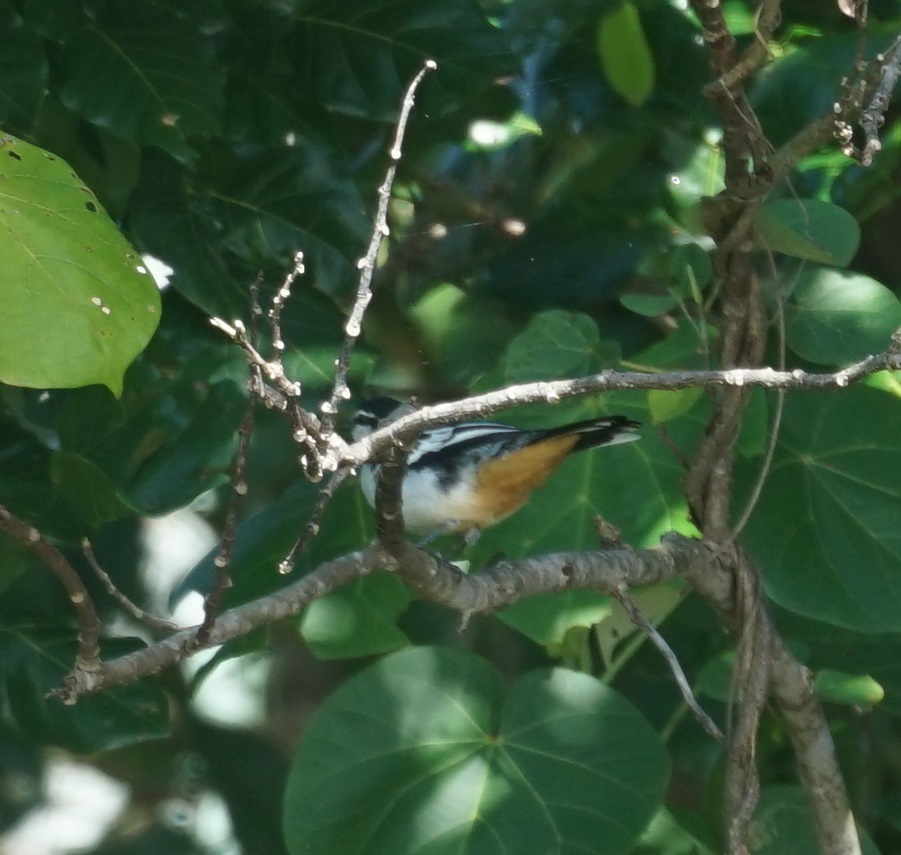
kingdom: Animalia
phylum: Chordata
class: Aves
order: Passeriformes
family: Campephagidae
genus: Lalage
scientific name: Lalage leucomela
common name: Varied triller
